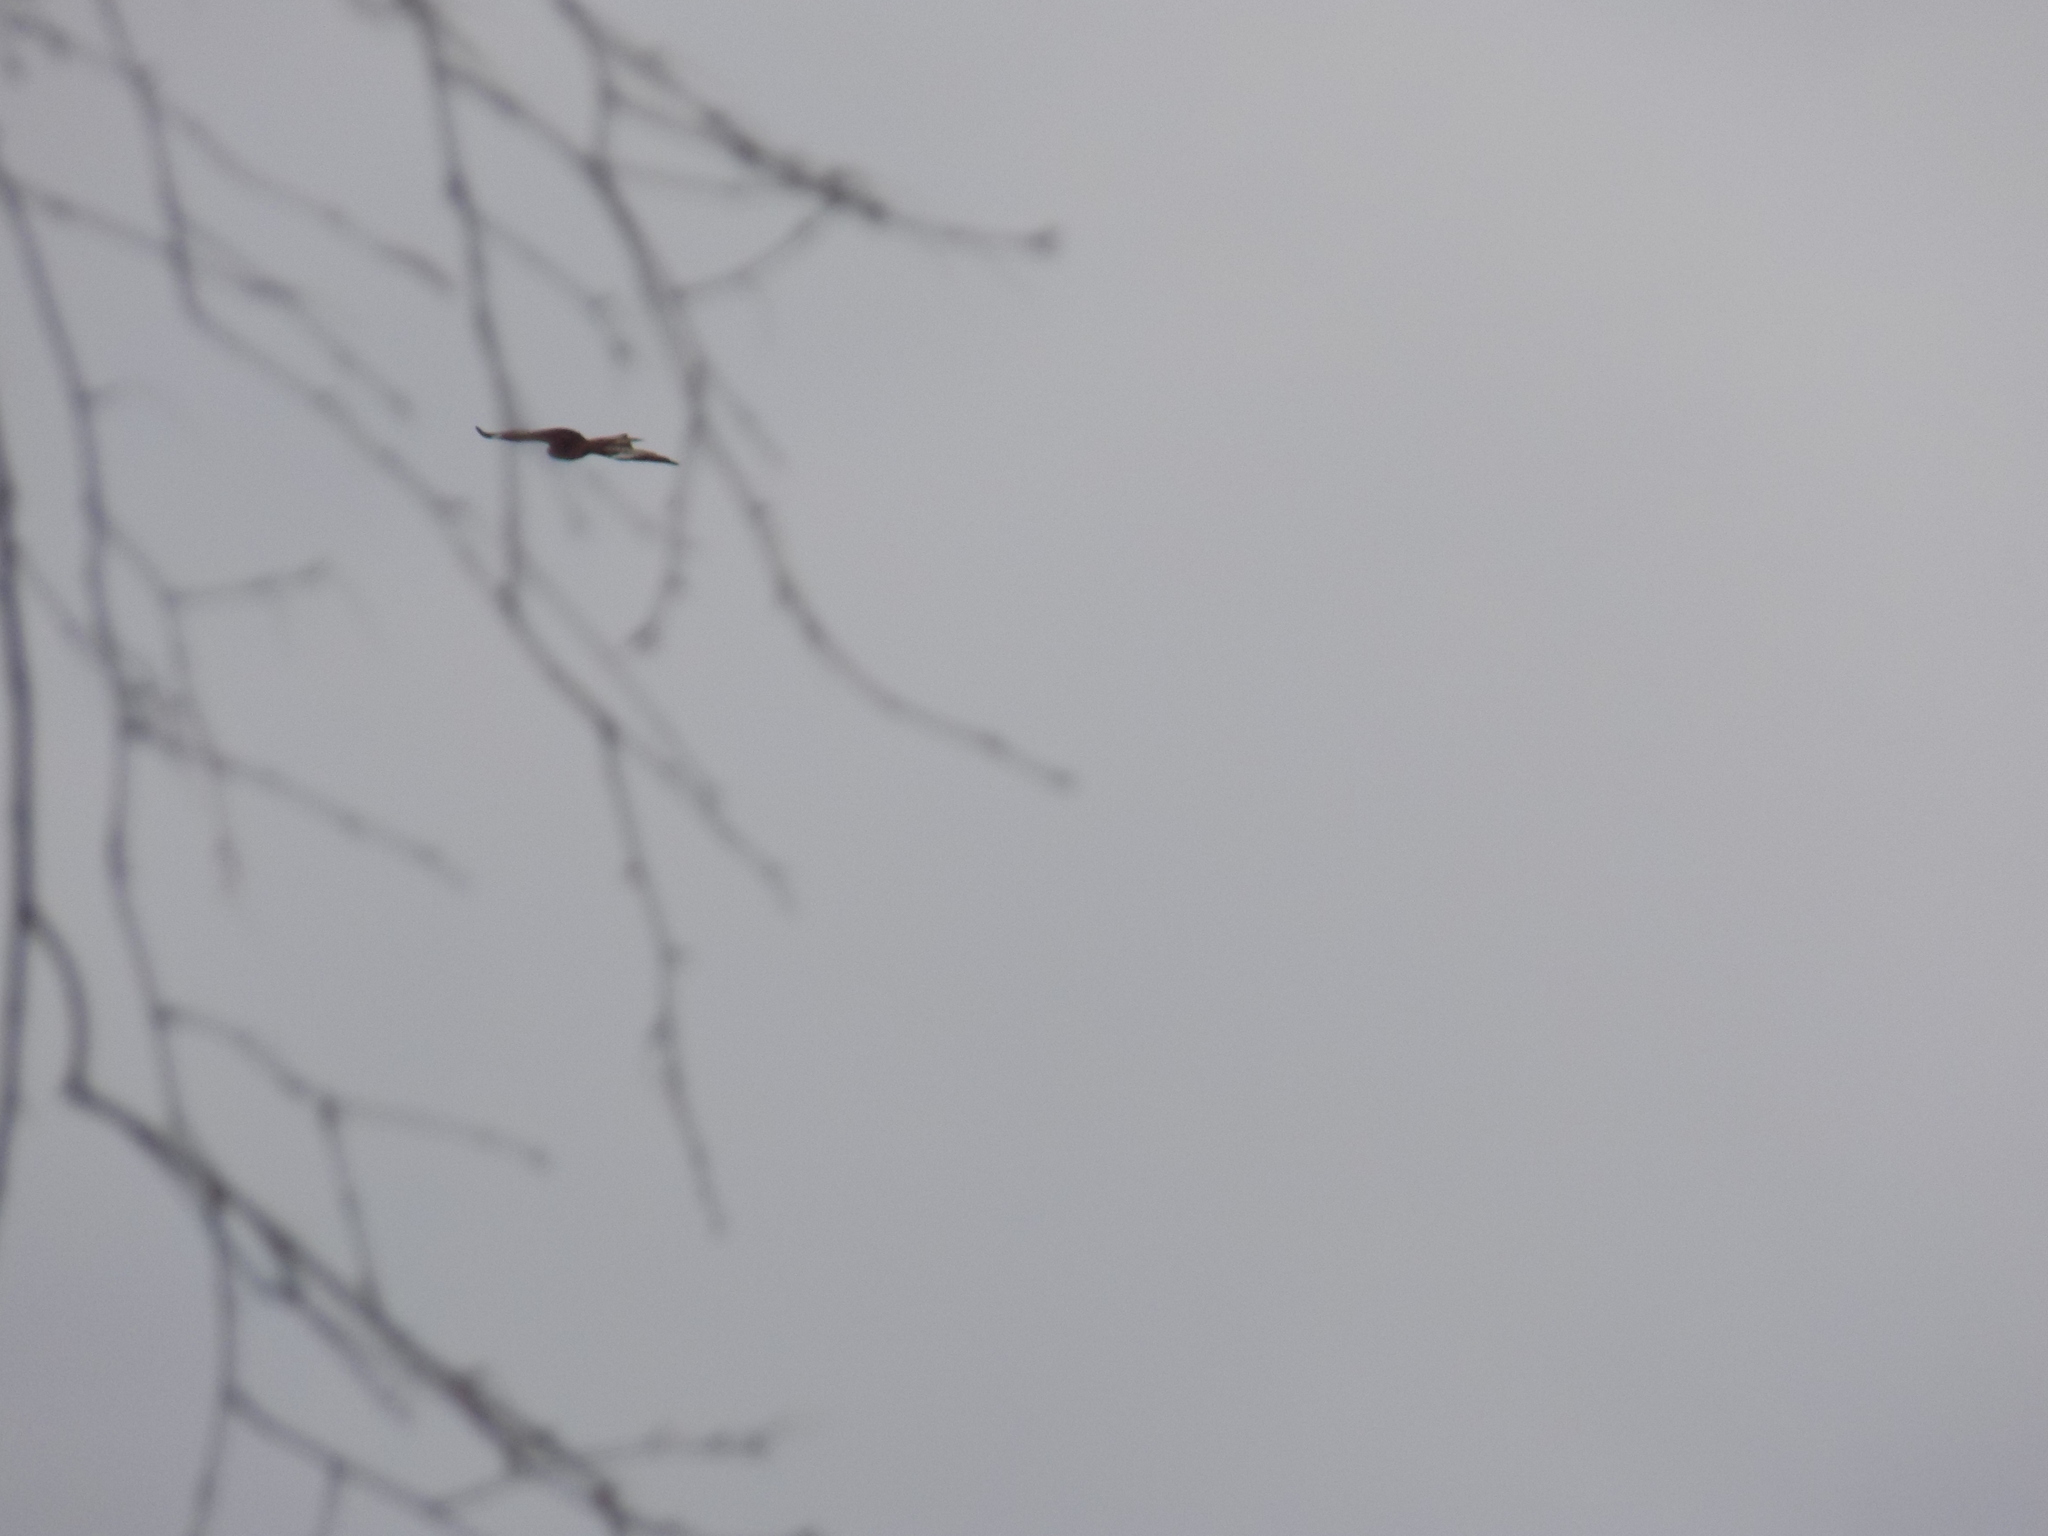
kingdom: Animalia
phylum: Chordata
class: Aves
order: Accipitriformes
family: Accipitridae
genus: Milvus
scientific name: Milvus migrans
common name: Black kite
